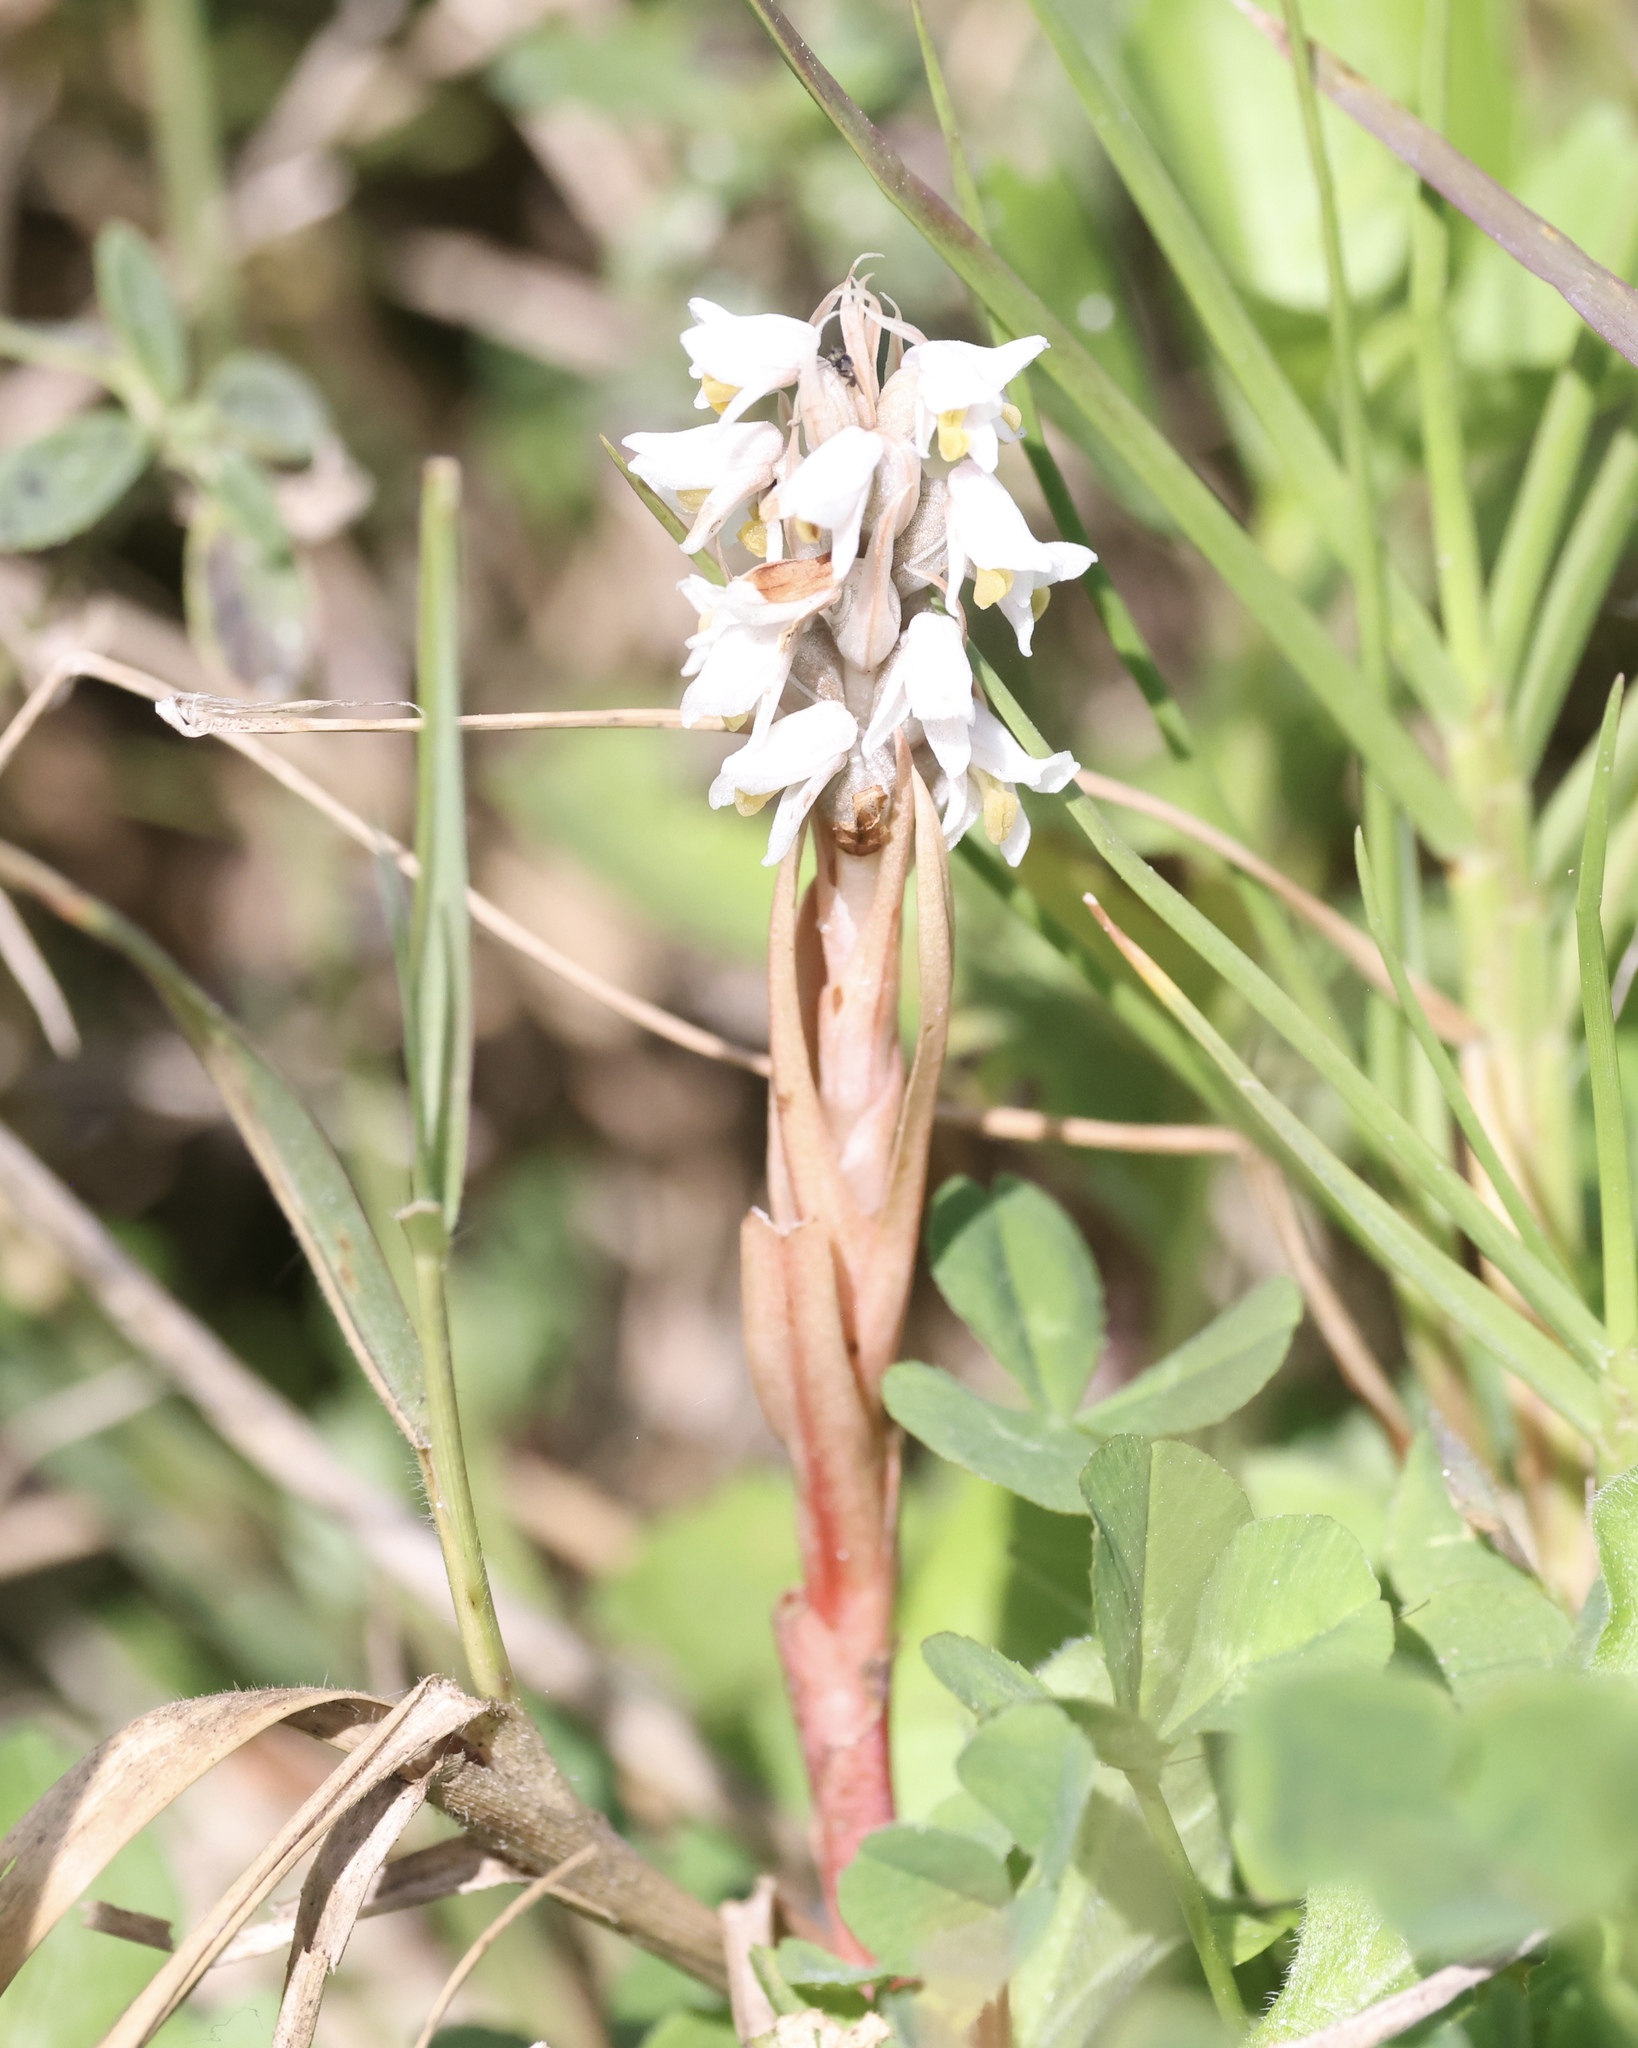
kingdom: Plantae
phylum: Tracheophyta
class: Liliopsida
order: Asparagales
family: Orchidaceae
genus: Zeuxine
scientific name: Zeuxine strateumatica
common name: Soldier's orchid
